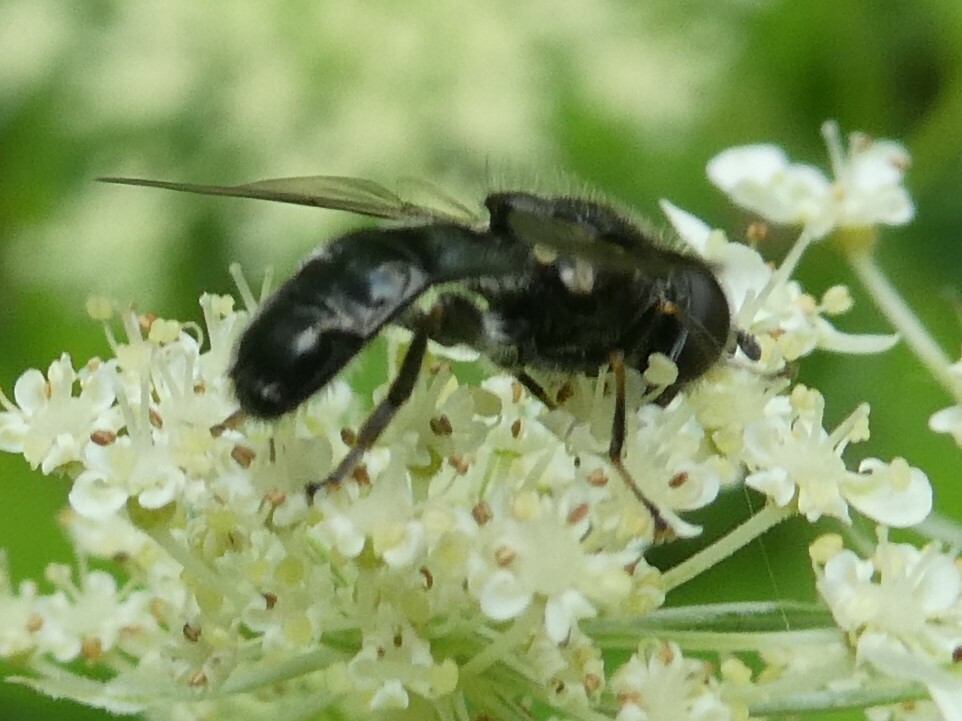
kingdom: Animalia
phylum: Arthropoda
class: Insecta
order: Diptera
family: Syrphidae
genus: Pipiza
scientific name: Pipiza
